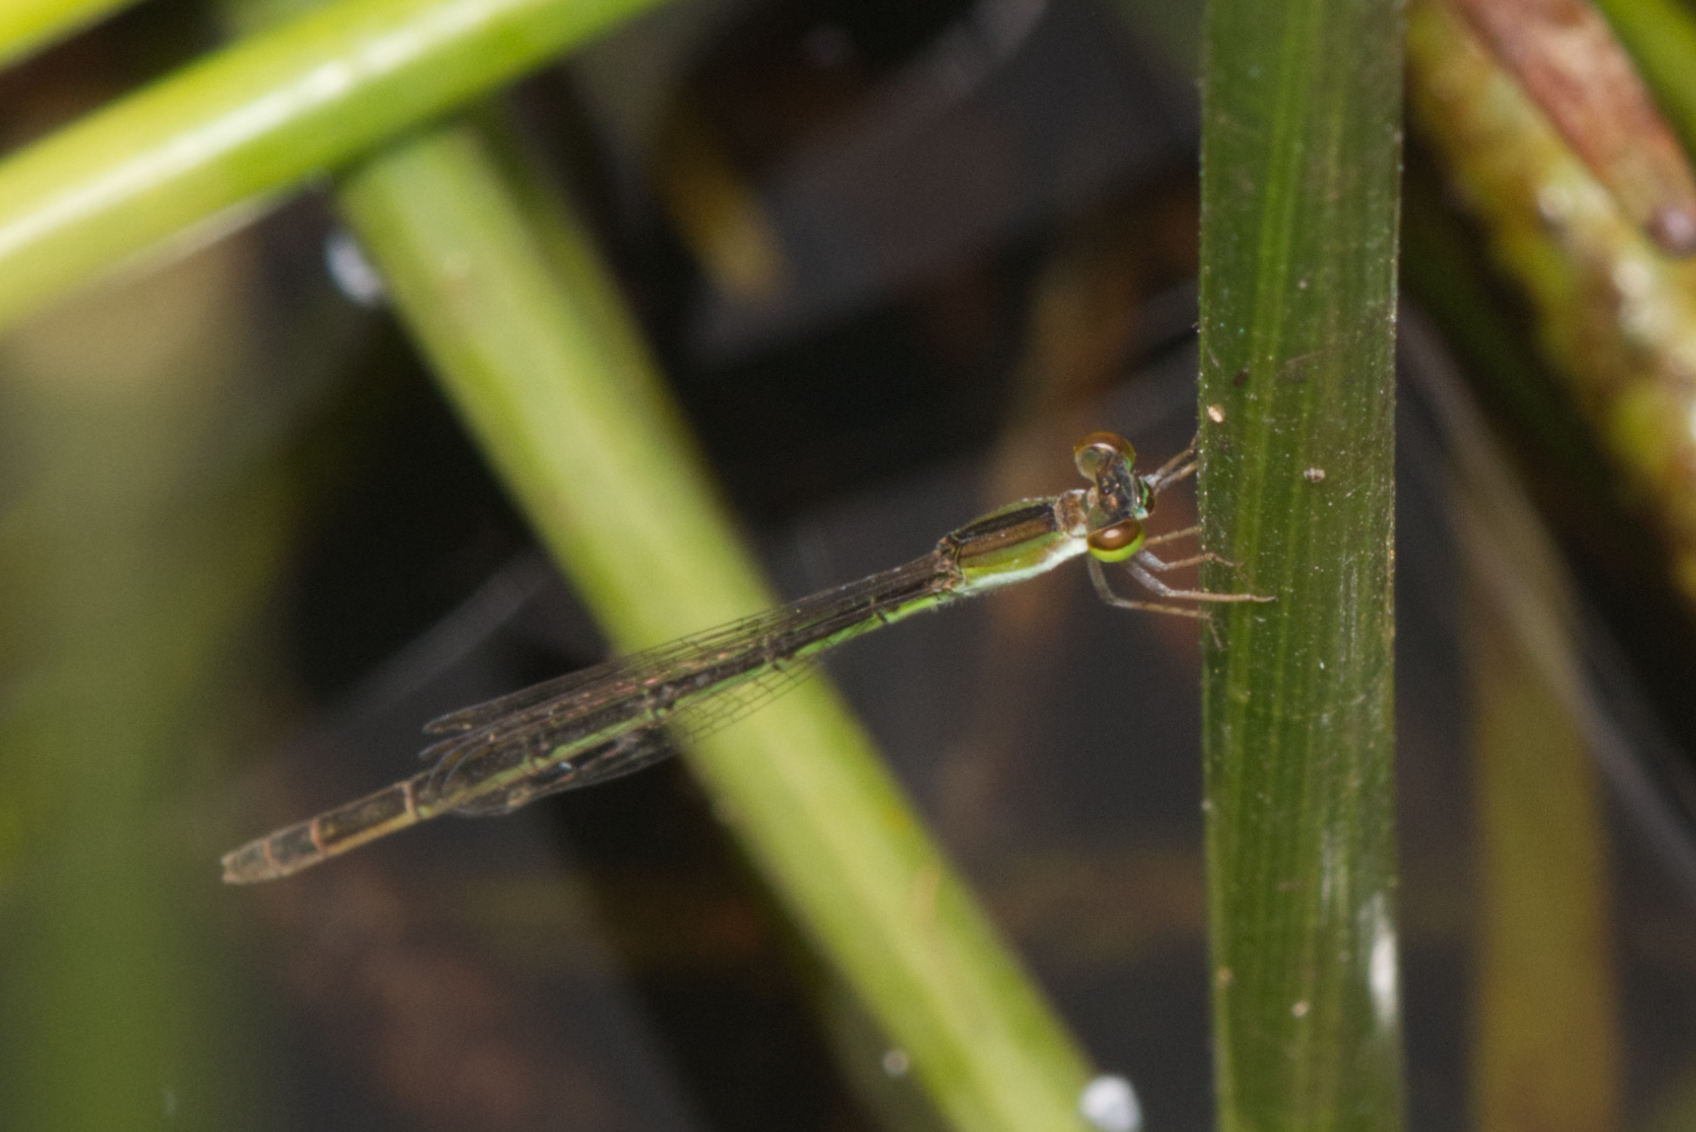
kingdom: Animalia
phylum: Arthropoda
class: Insecta
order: Odonata
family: Coenagrionidae
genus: Agriocnemis
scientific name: Agriocnemis pygmaea
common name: Pygmy wisp
